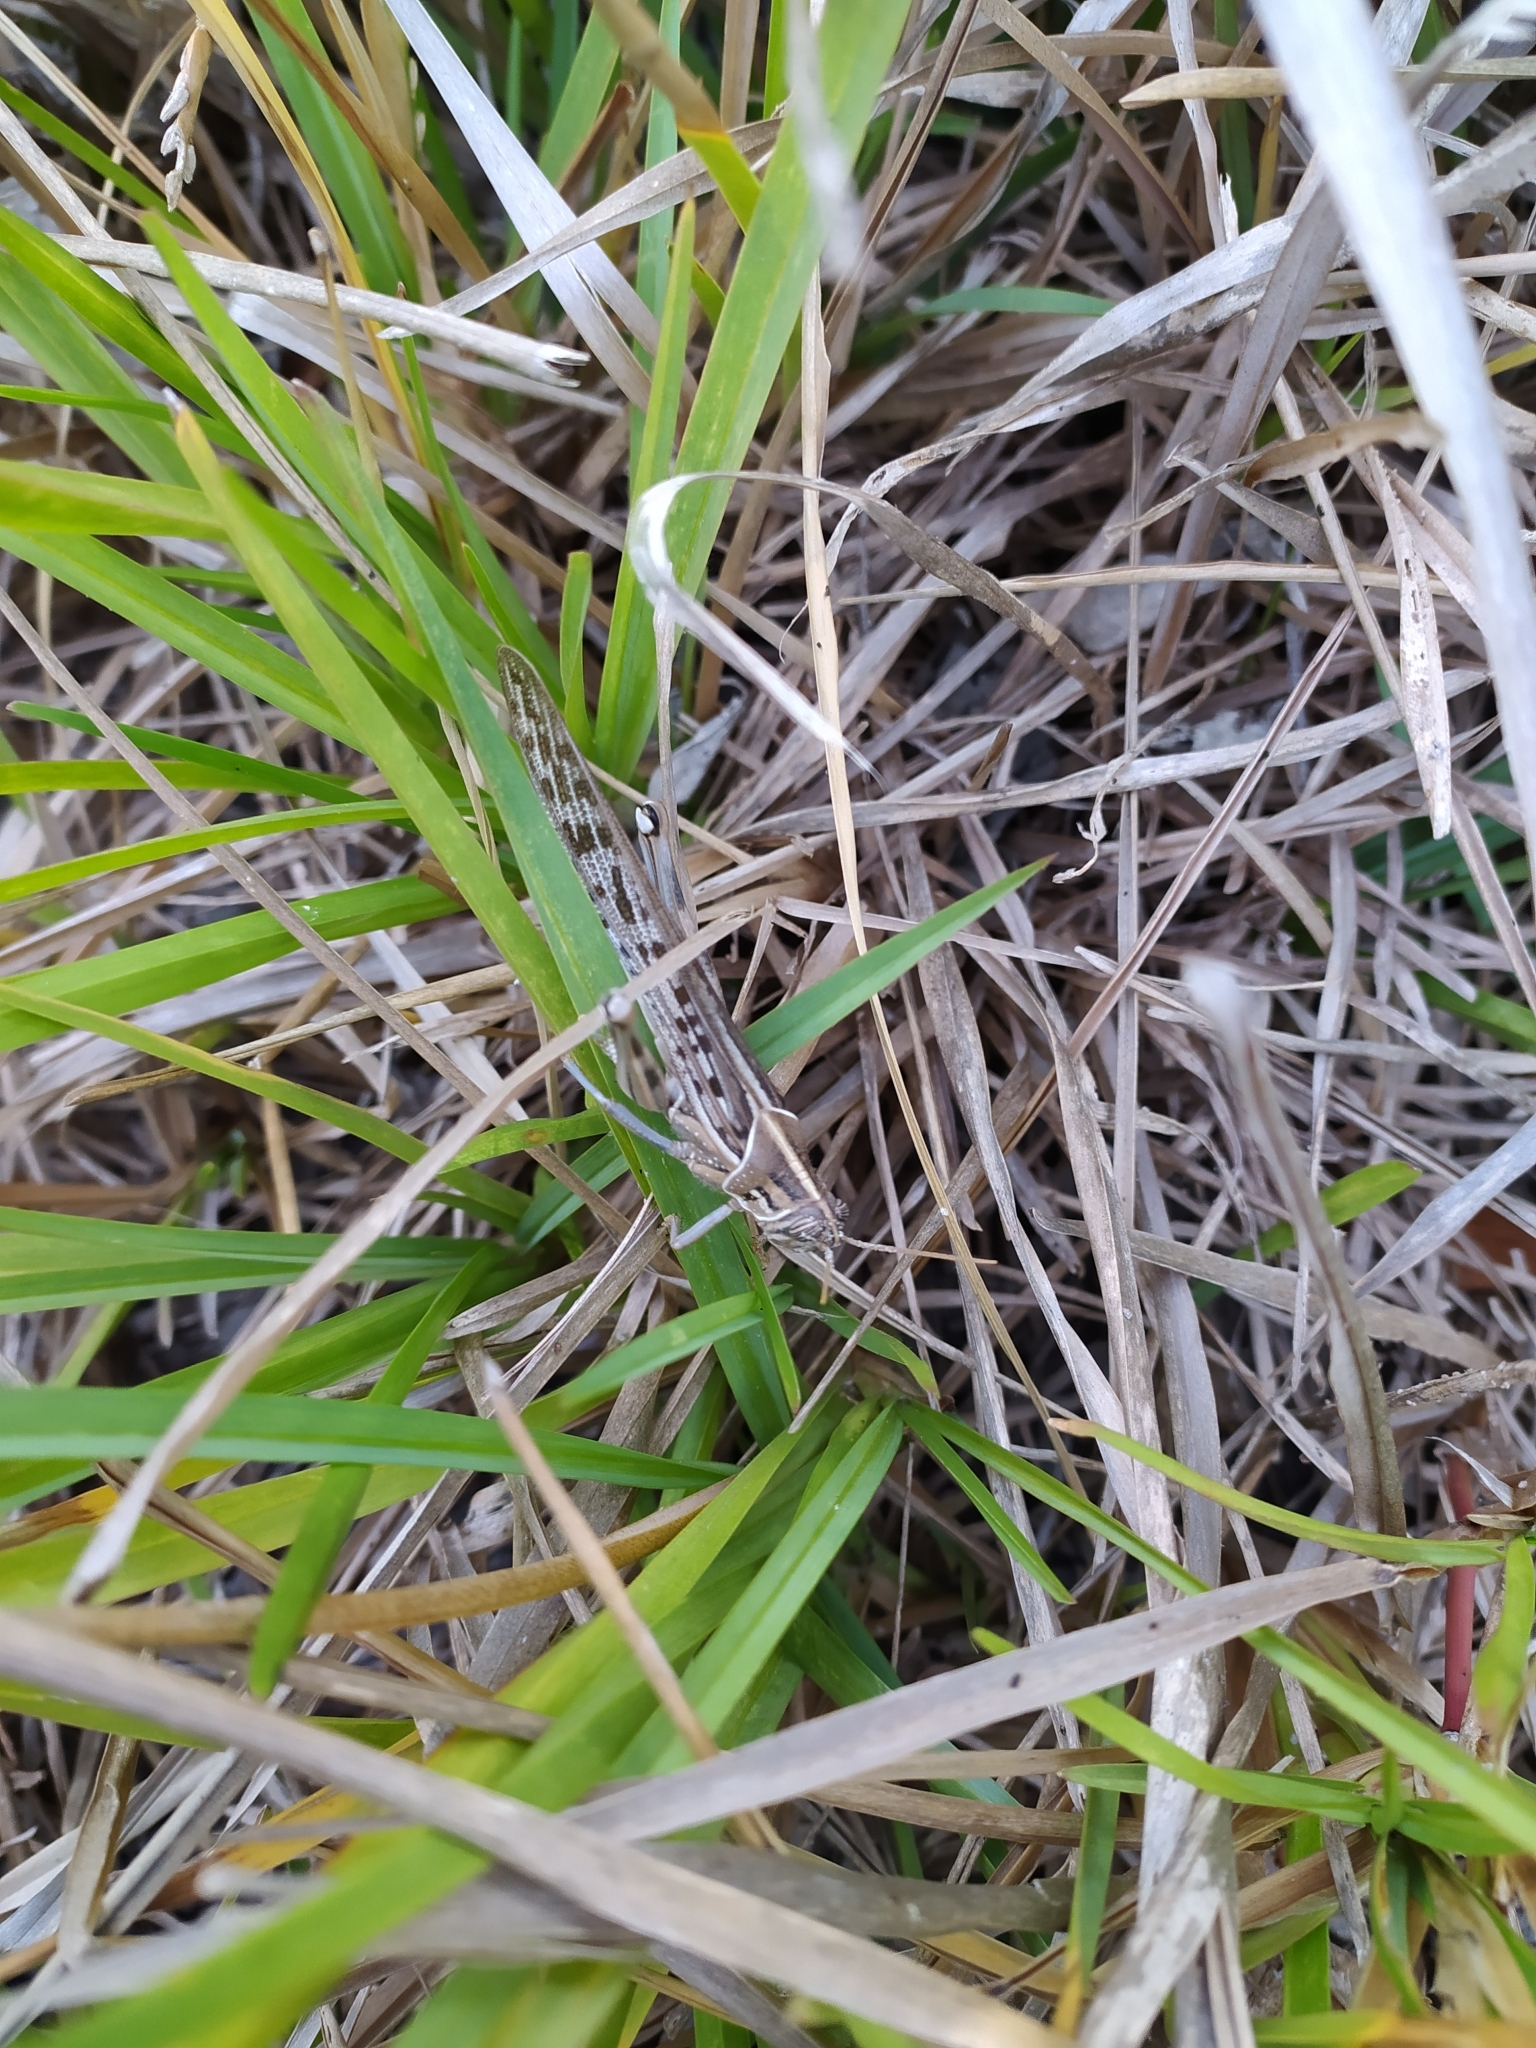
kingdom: Animalia
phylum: Arthropoda
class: Insecta
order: Orthoptera
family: Acrididae
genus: Schistocerca
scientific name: Schistocerca gregaria
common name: Desert locust
